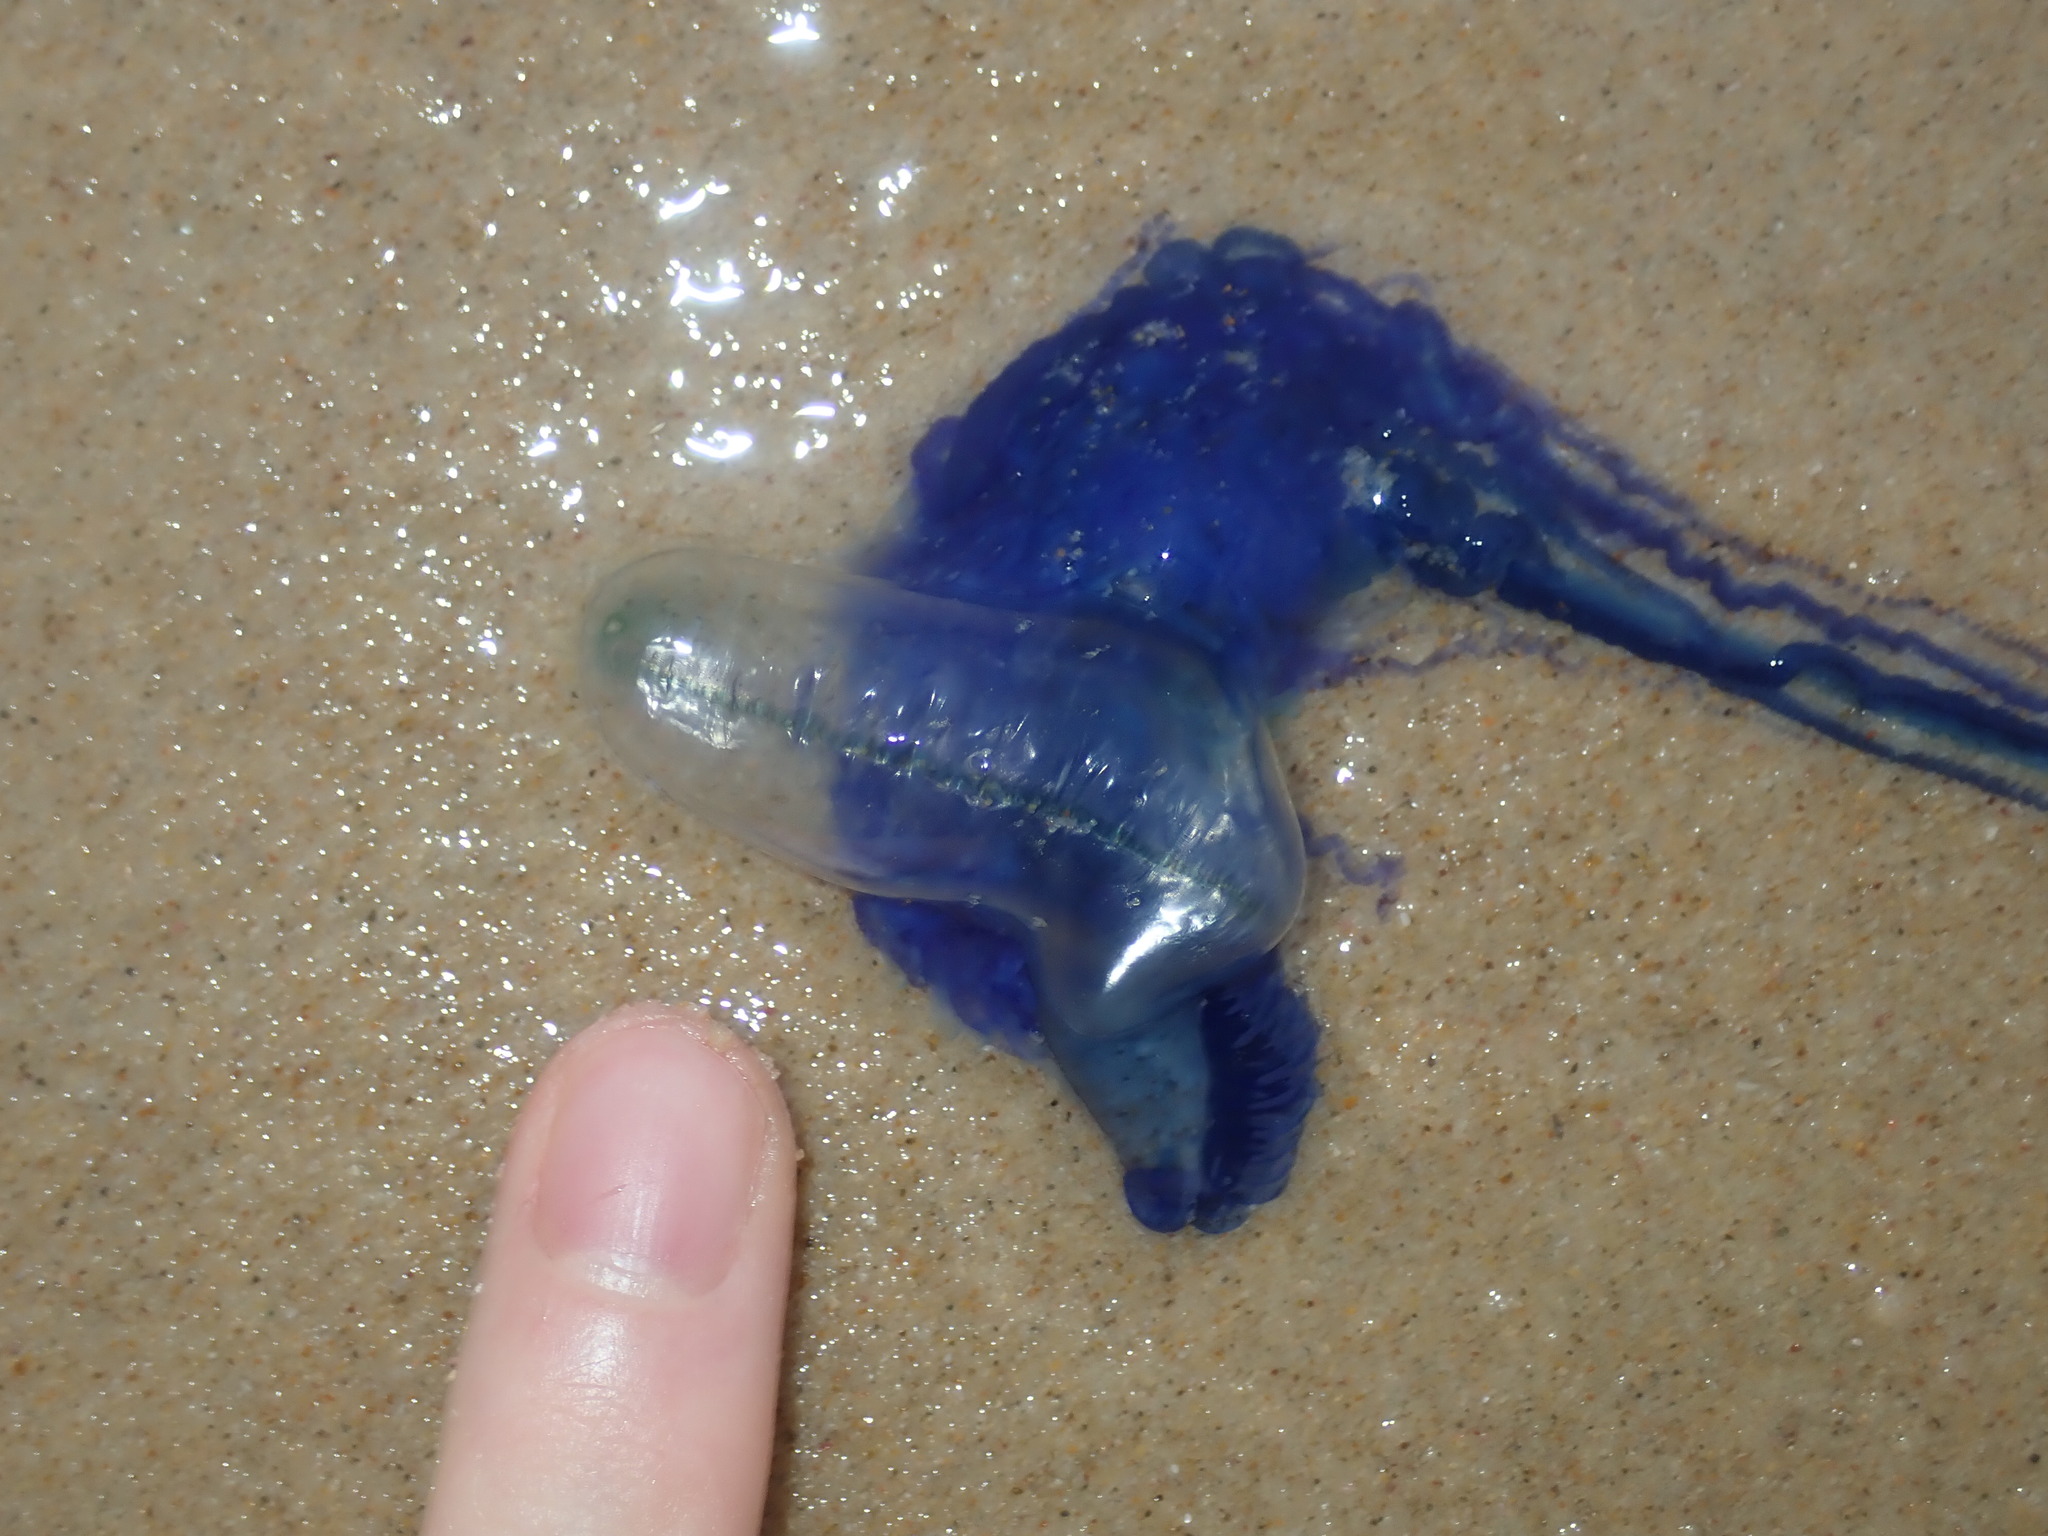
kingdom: Animalia
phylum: Cnidaria
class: Hydrozoa
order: Siphonophorae
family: Physaliidae
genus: Physalia
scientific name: Physalia physalis
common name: Portuguese man-of-war
